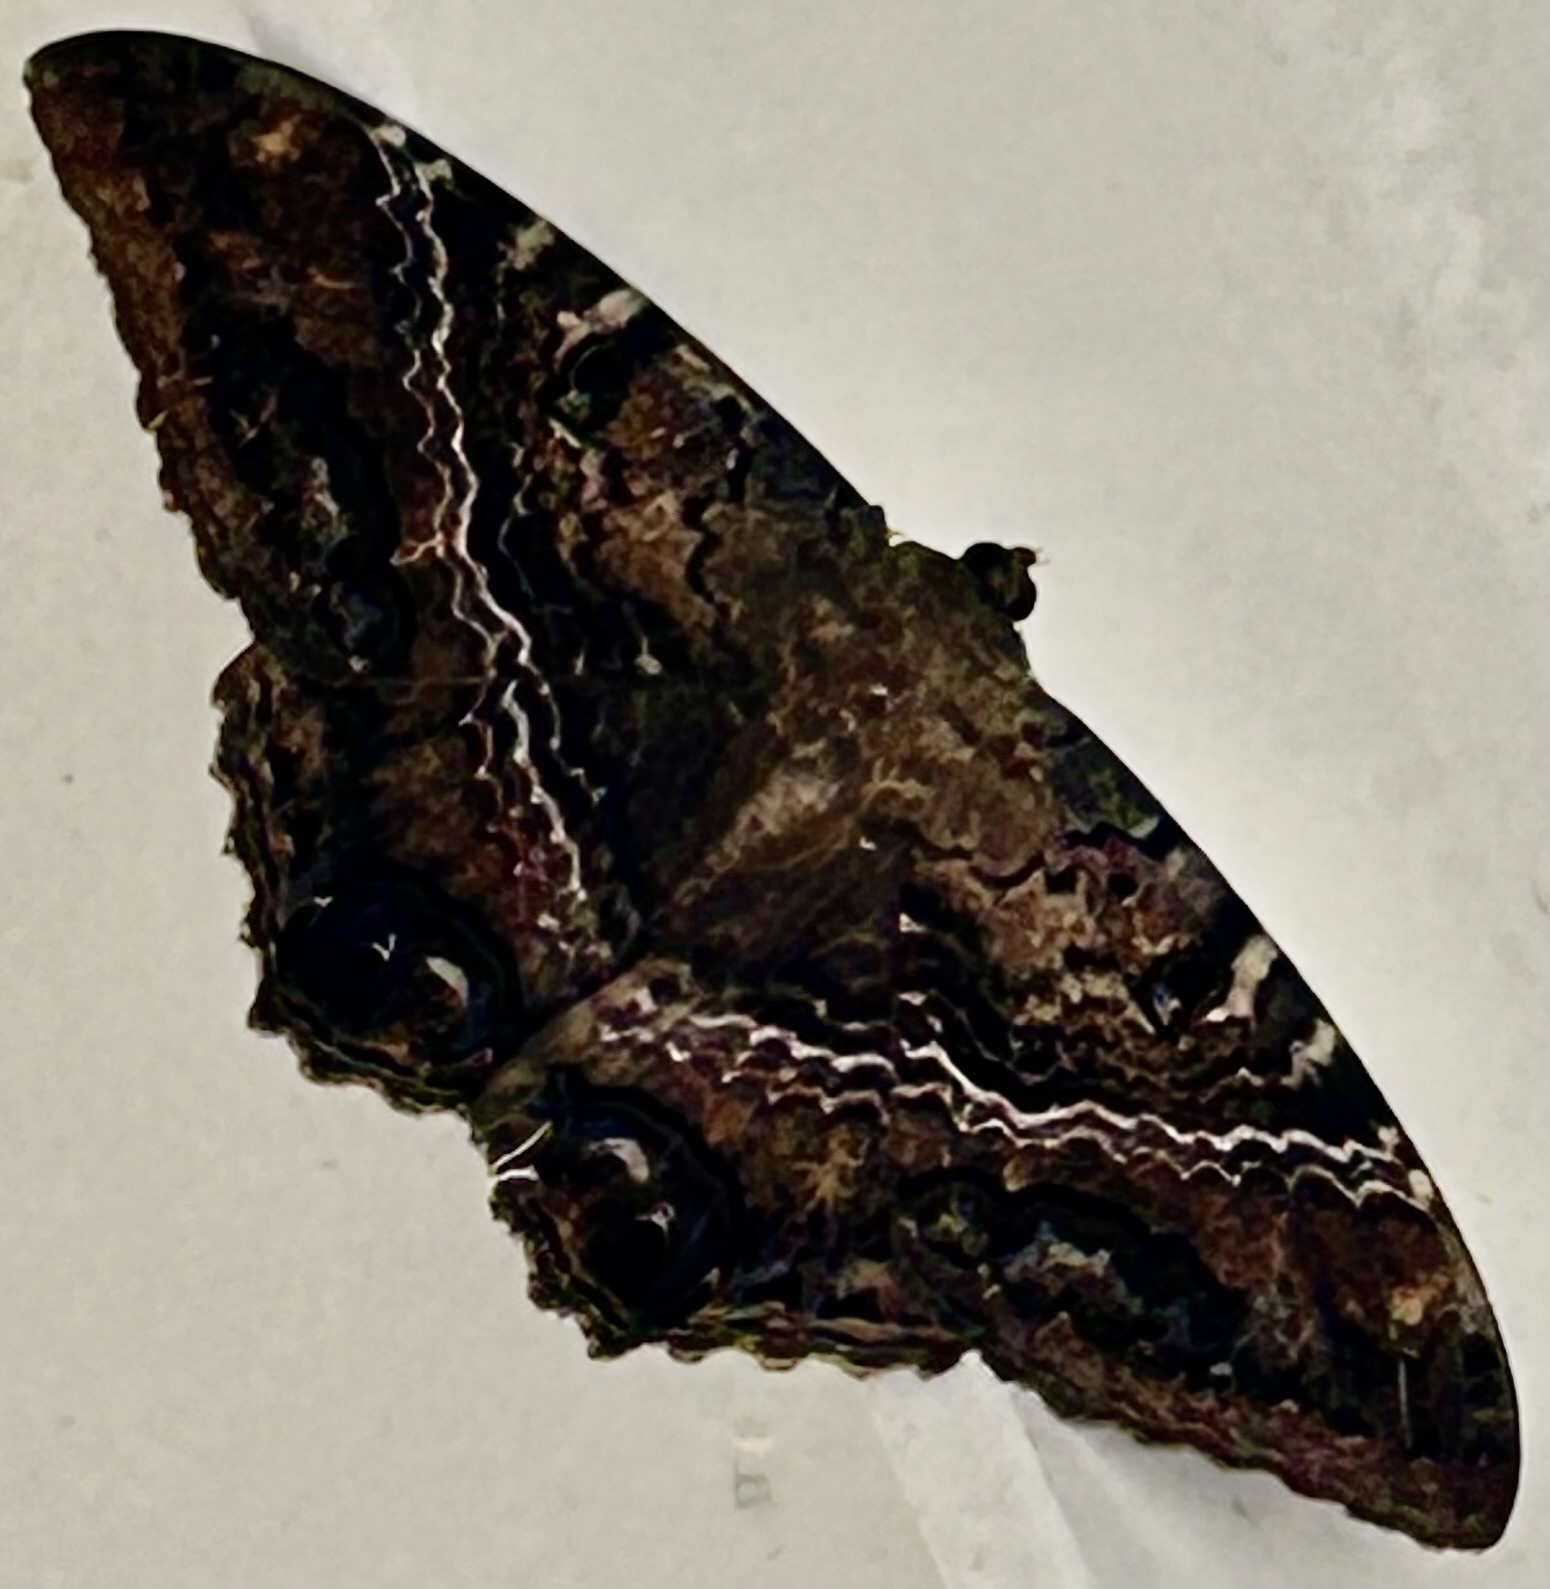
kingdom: Animalia
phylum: Arthropoda
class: Insecta
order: Lepidoptera
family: Erebidae
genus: Ascalapha
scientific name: Ascalapha odorata
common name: Black witch
